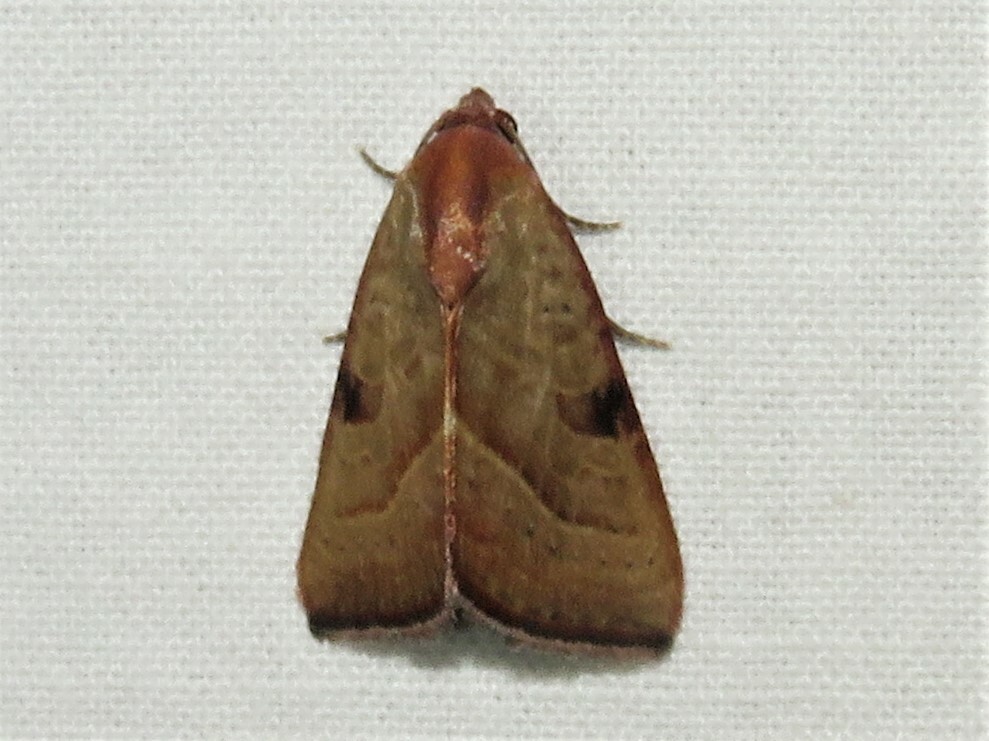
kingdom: Animalia
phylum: Arthropoda
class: Insecta
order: Lepidoptera
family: Noctuidae
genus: Galgula
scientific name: Galgula partita
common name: Wedgeling
